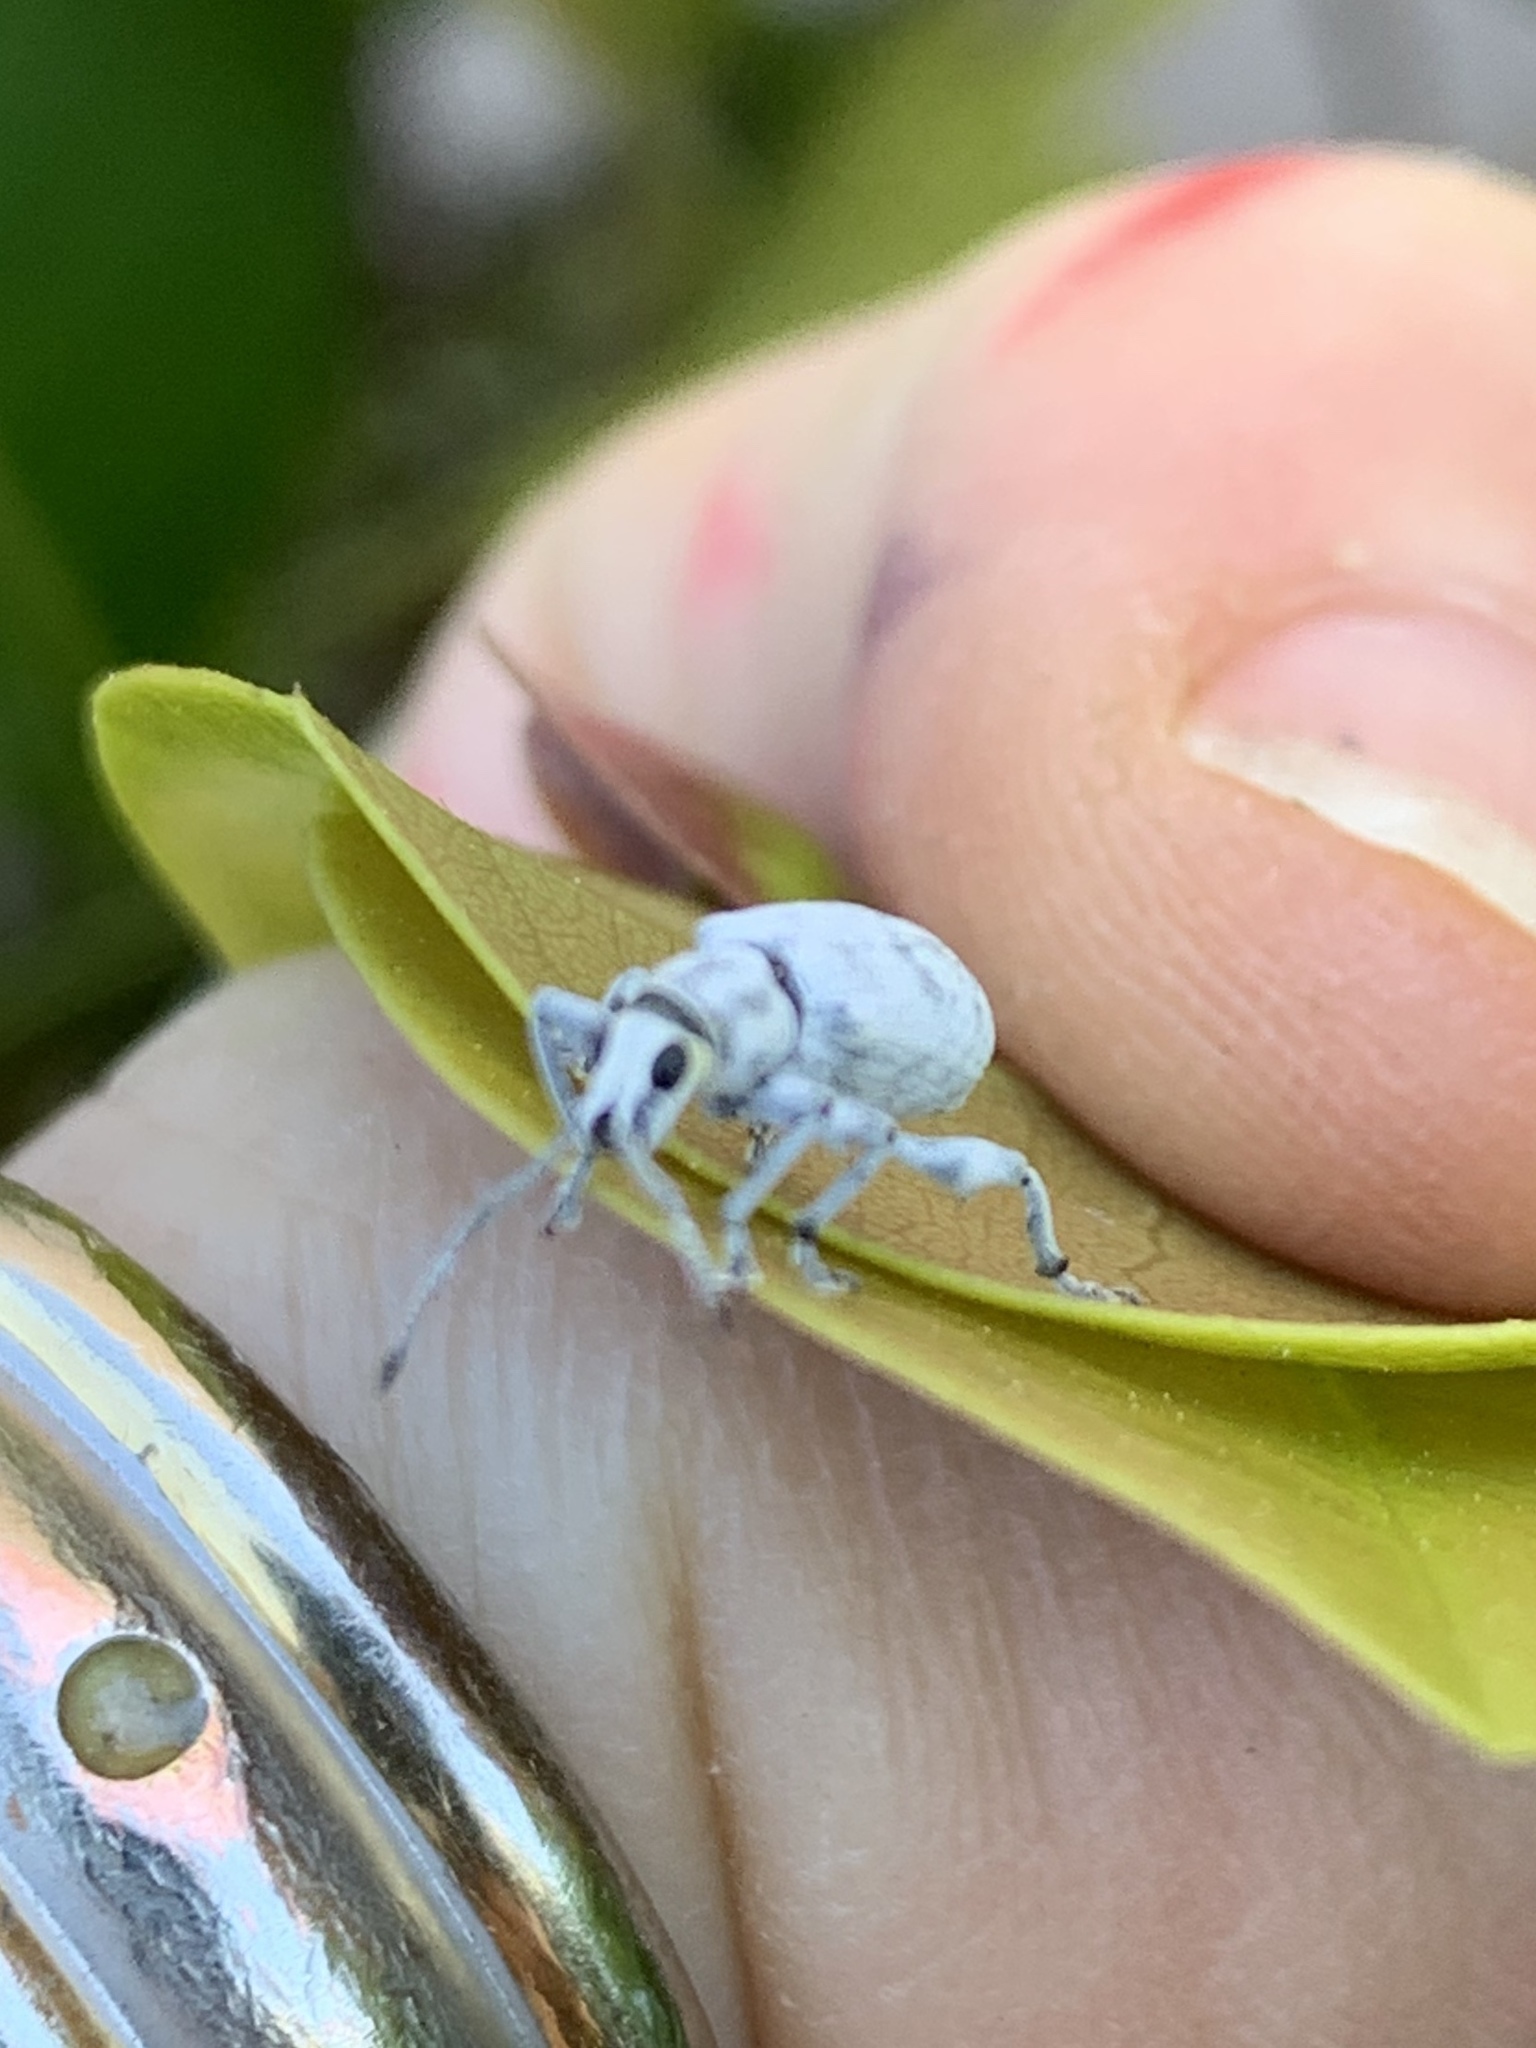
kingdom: Animalia
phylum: Arthropoda
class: Insecta
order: Coleoptera
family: Curculionidae
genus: Myllocerus
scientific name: Myllocerus undecimpustulatus
